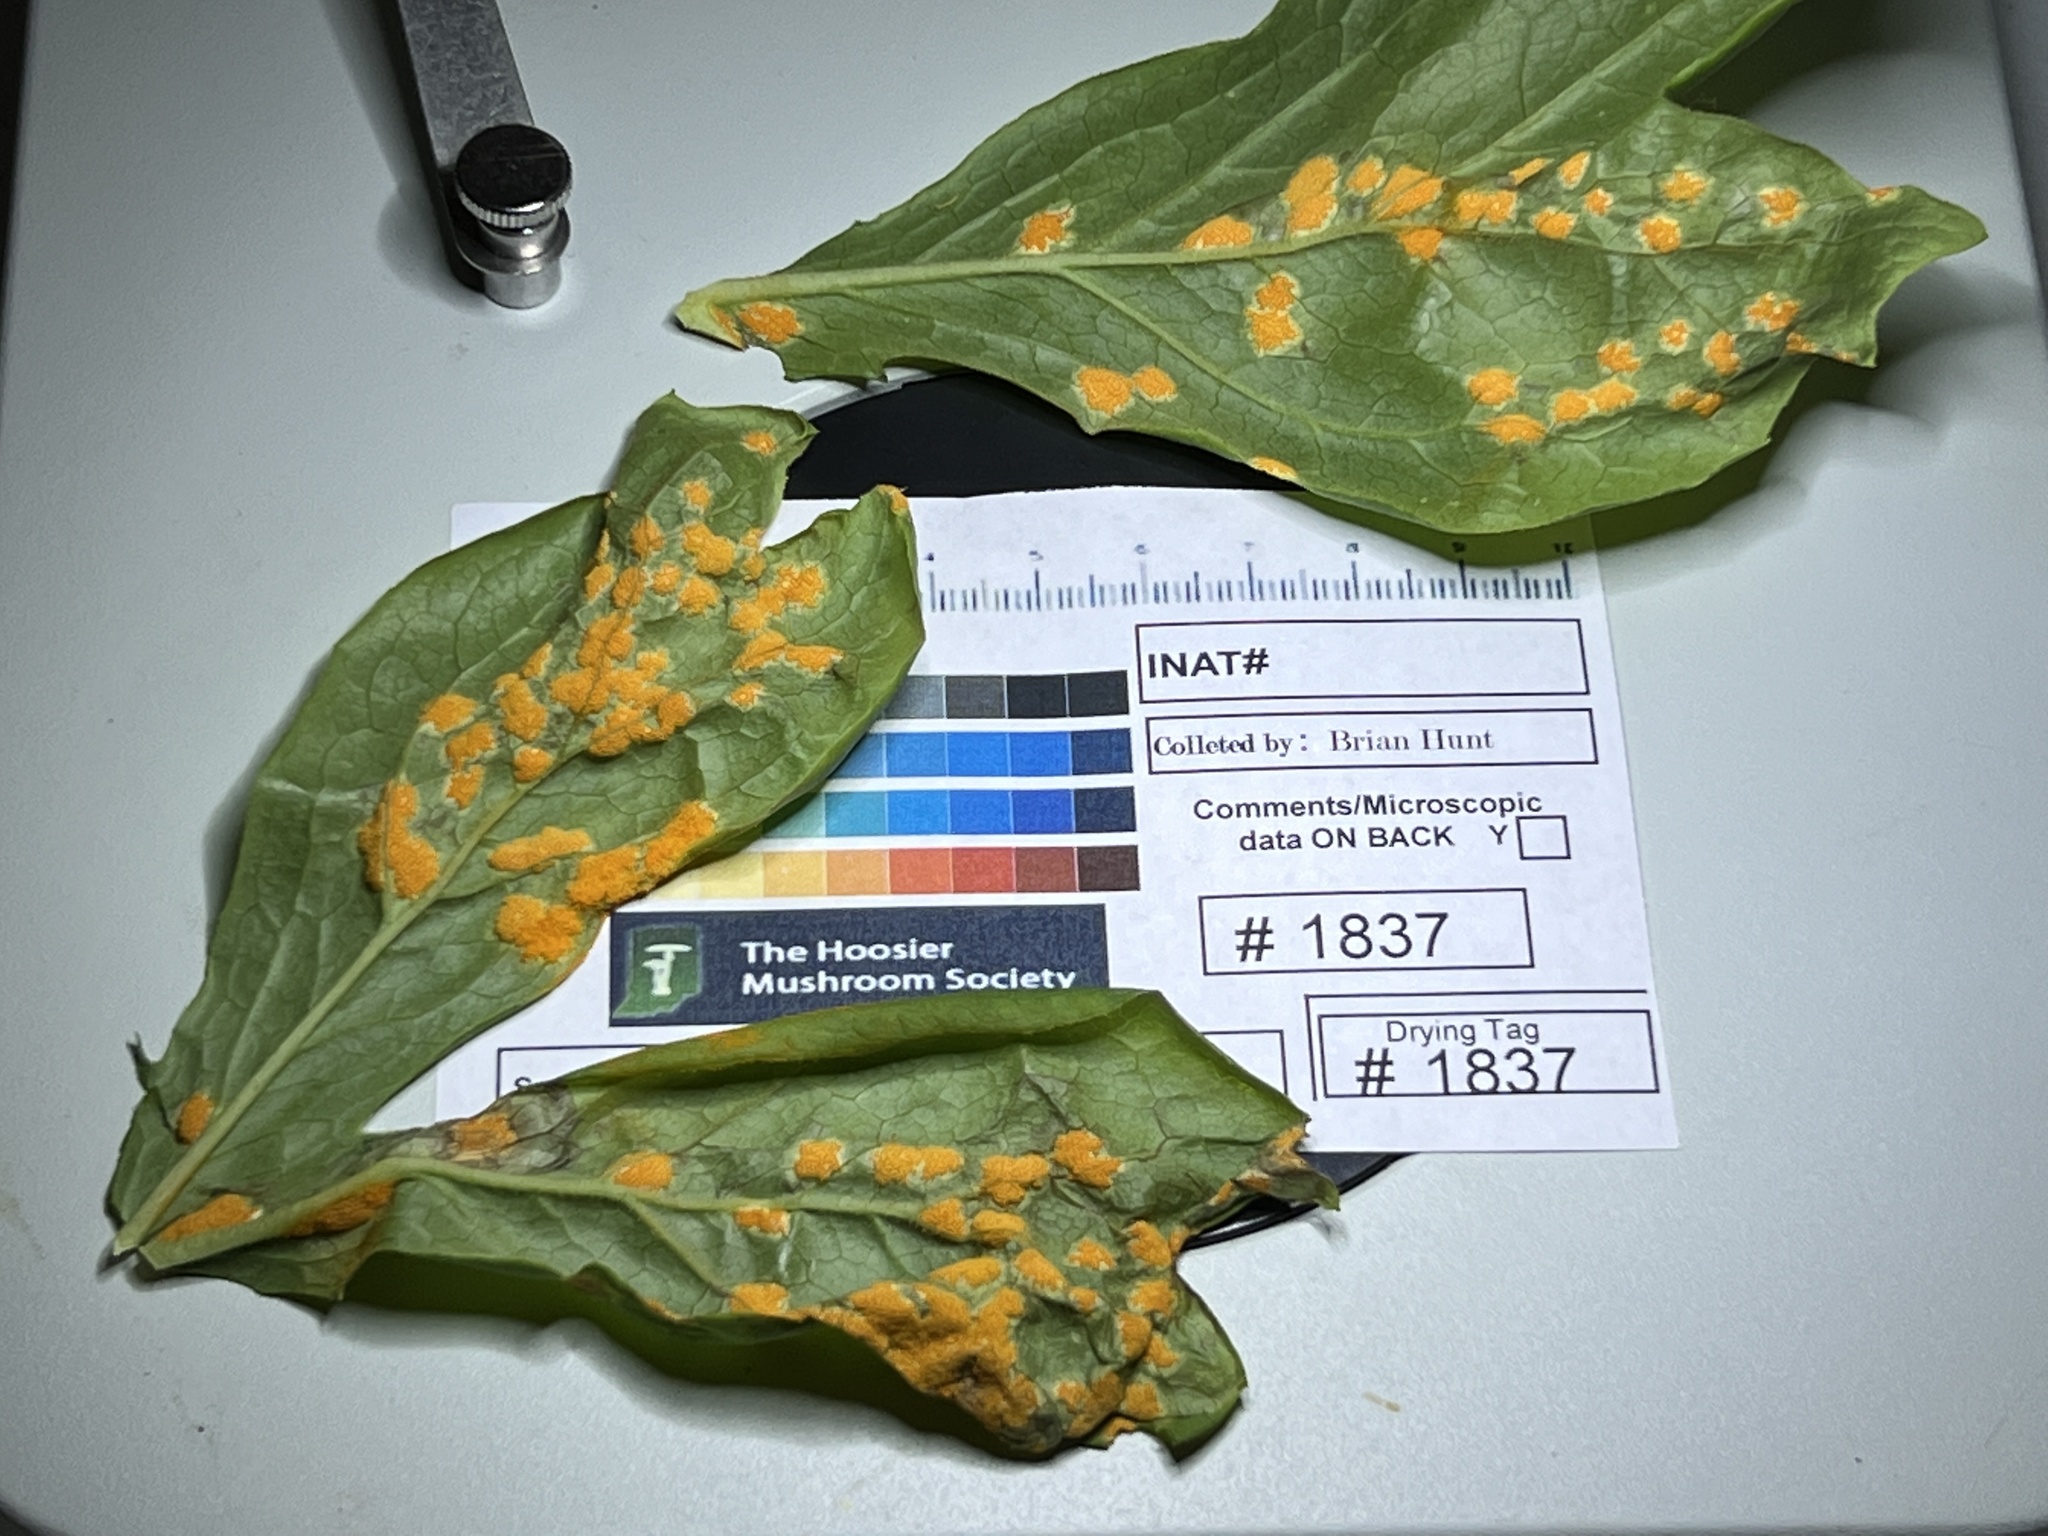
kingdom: Fungi
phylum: Basidiomycota
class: Pucciniomycetes
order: Pucciniales
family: Pucciniaceae
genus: Puccinia
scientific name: Puccinia podophylli
